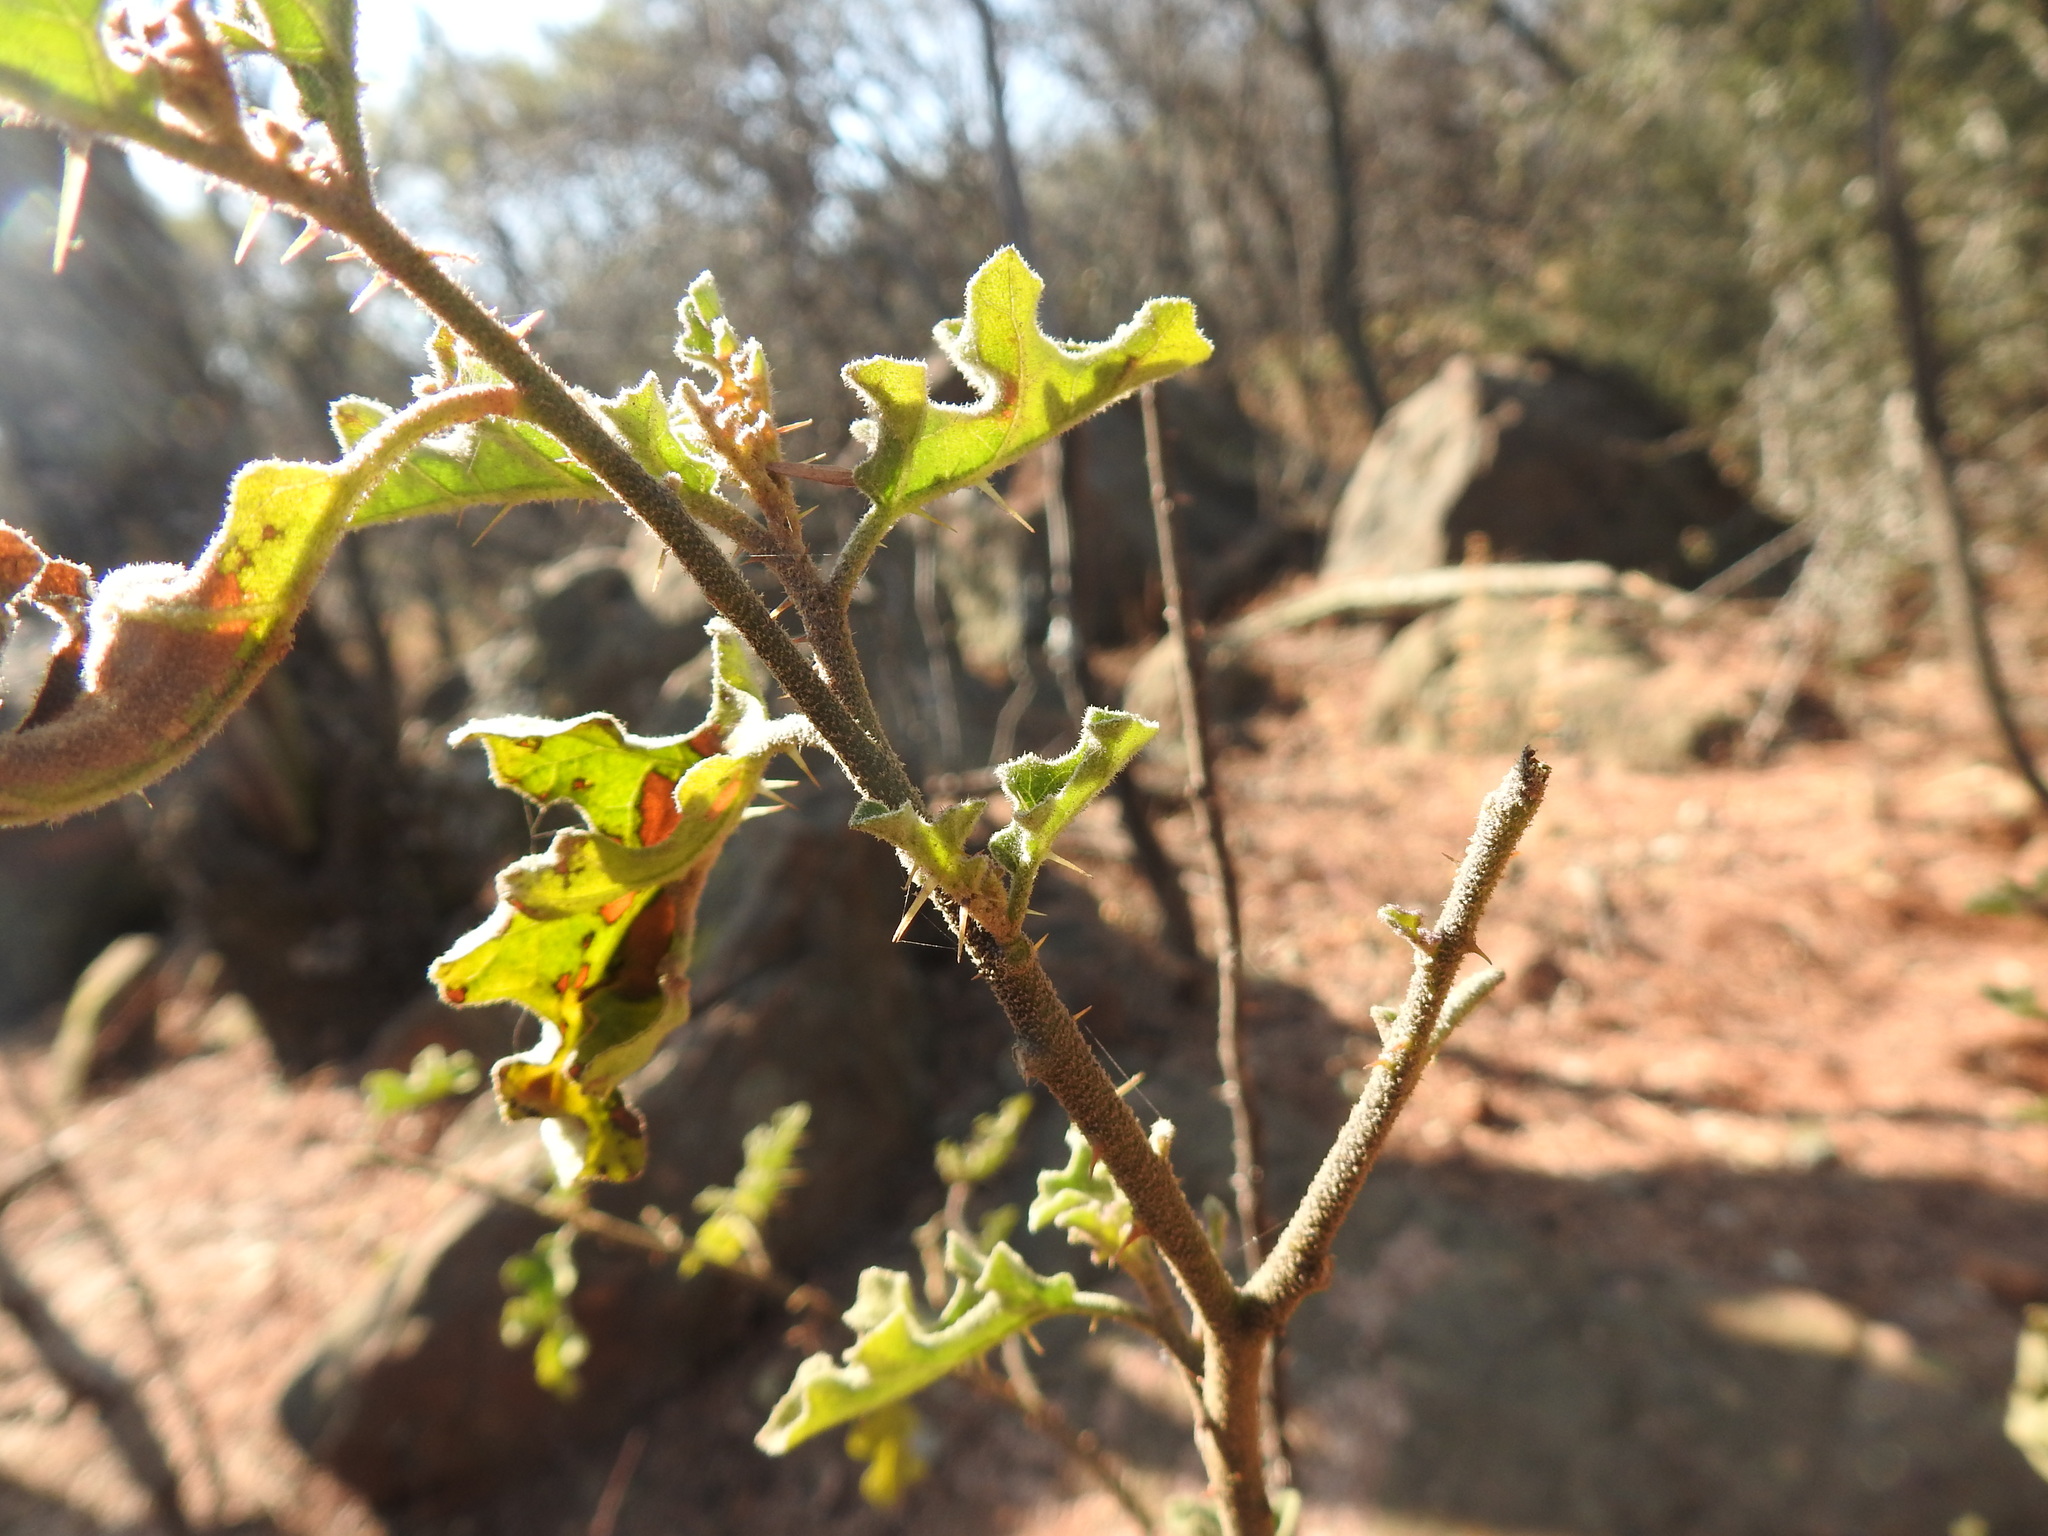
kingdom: Plantae
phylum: Tracheophyta
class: Magnoliopsida
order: Solanales
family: Solanaceae
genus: Solanum
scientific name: Solanum rubetorum
